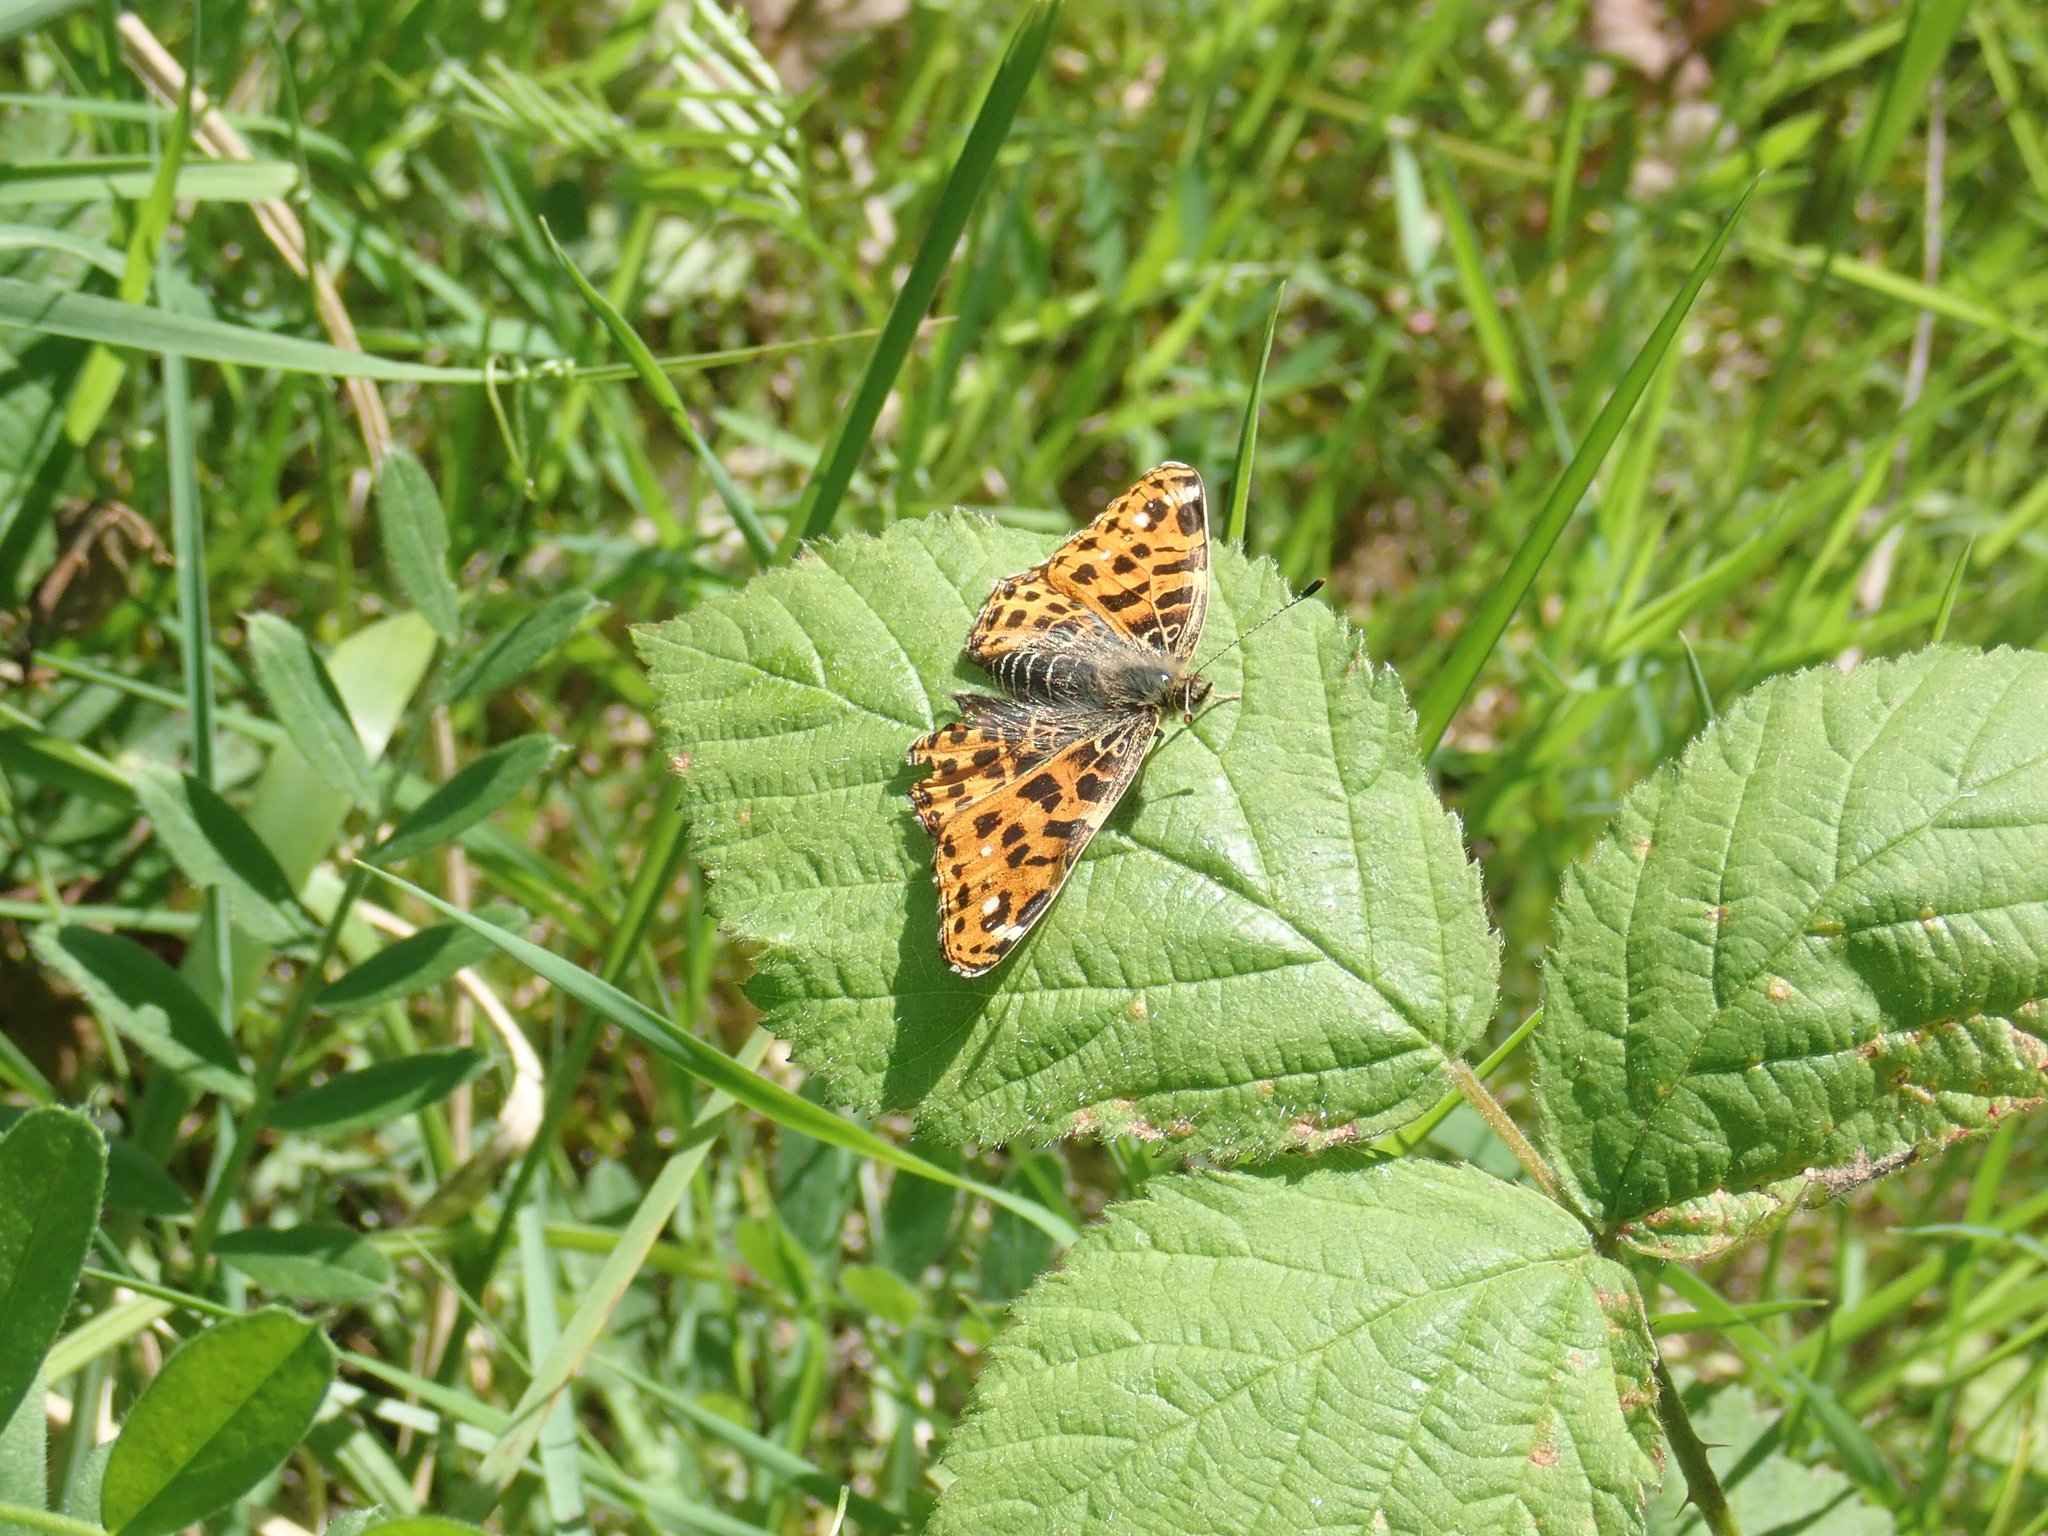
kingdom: Animalia
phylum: Arthropoda
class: Insecta
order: Lepidoptera
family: Nymphalidae
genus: Araschnia
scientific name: Araschnia levana
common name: Map butterfly
